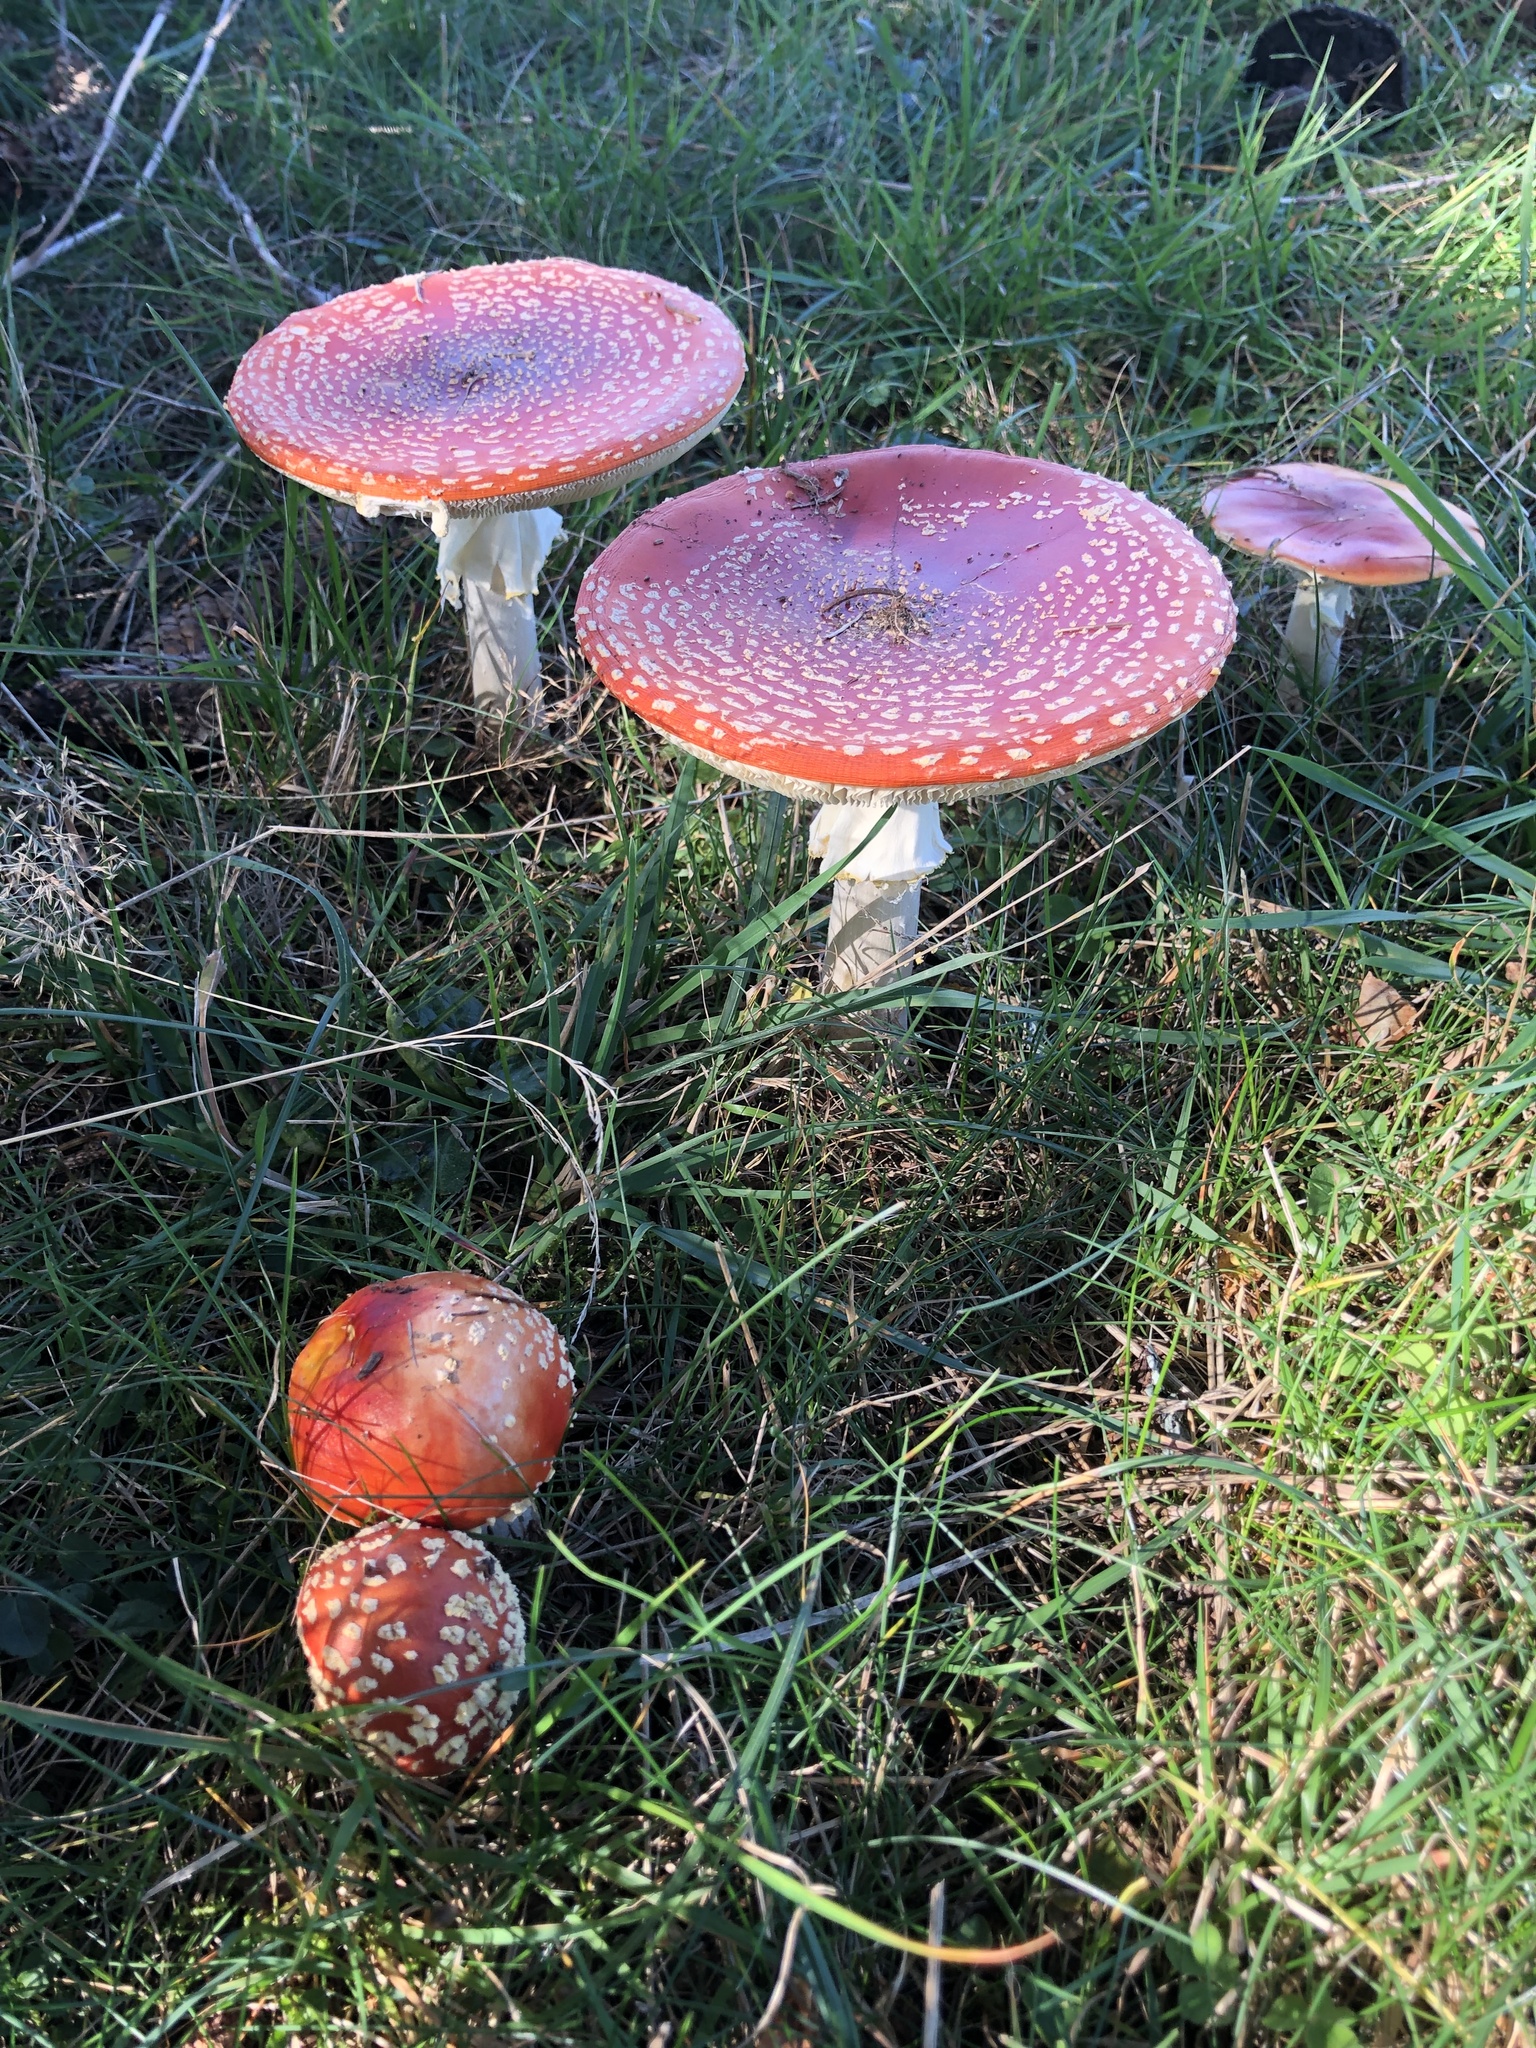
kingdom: Fungi
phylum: Basidiomycota
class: Agaricomycetes
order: Agaricales
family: Amanitaceae
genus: Amanita
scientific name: Amanita muscaria
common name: Fly agaric
